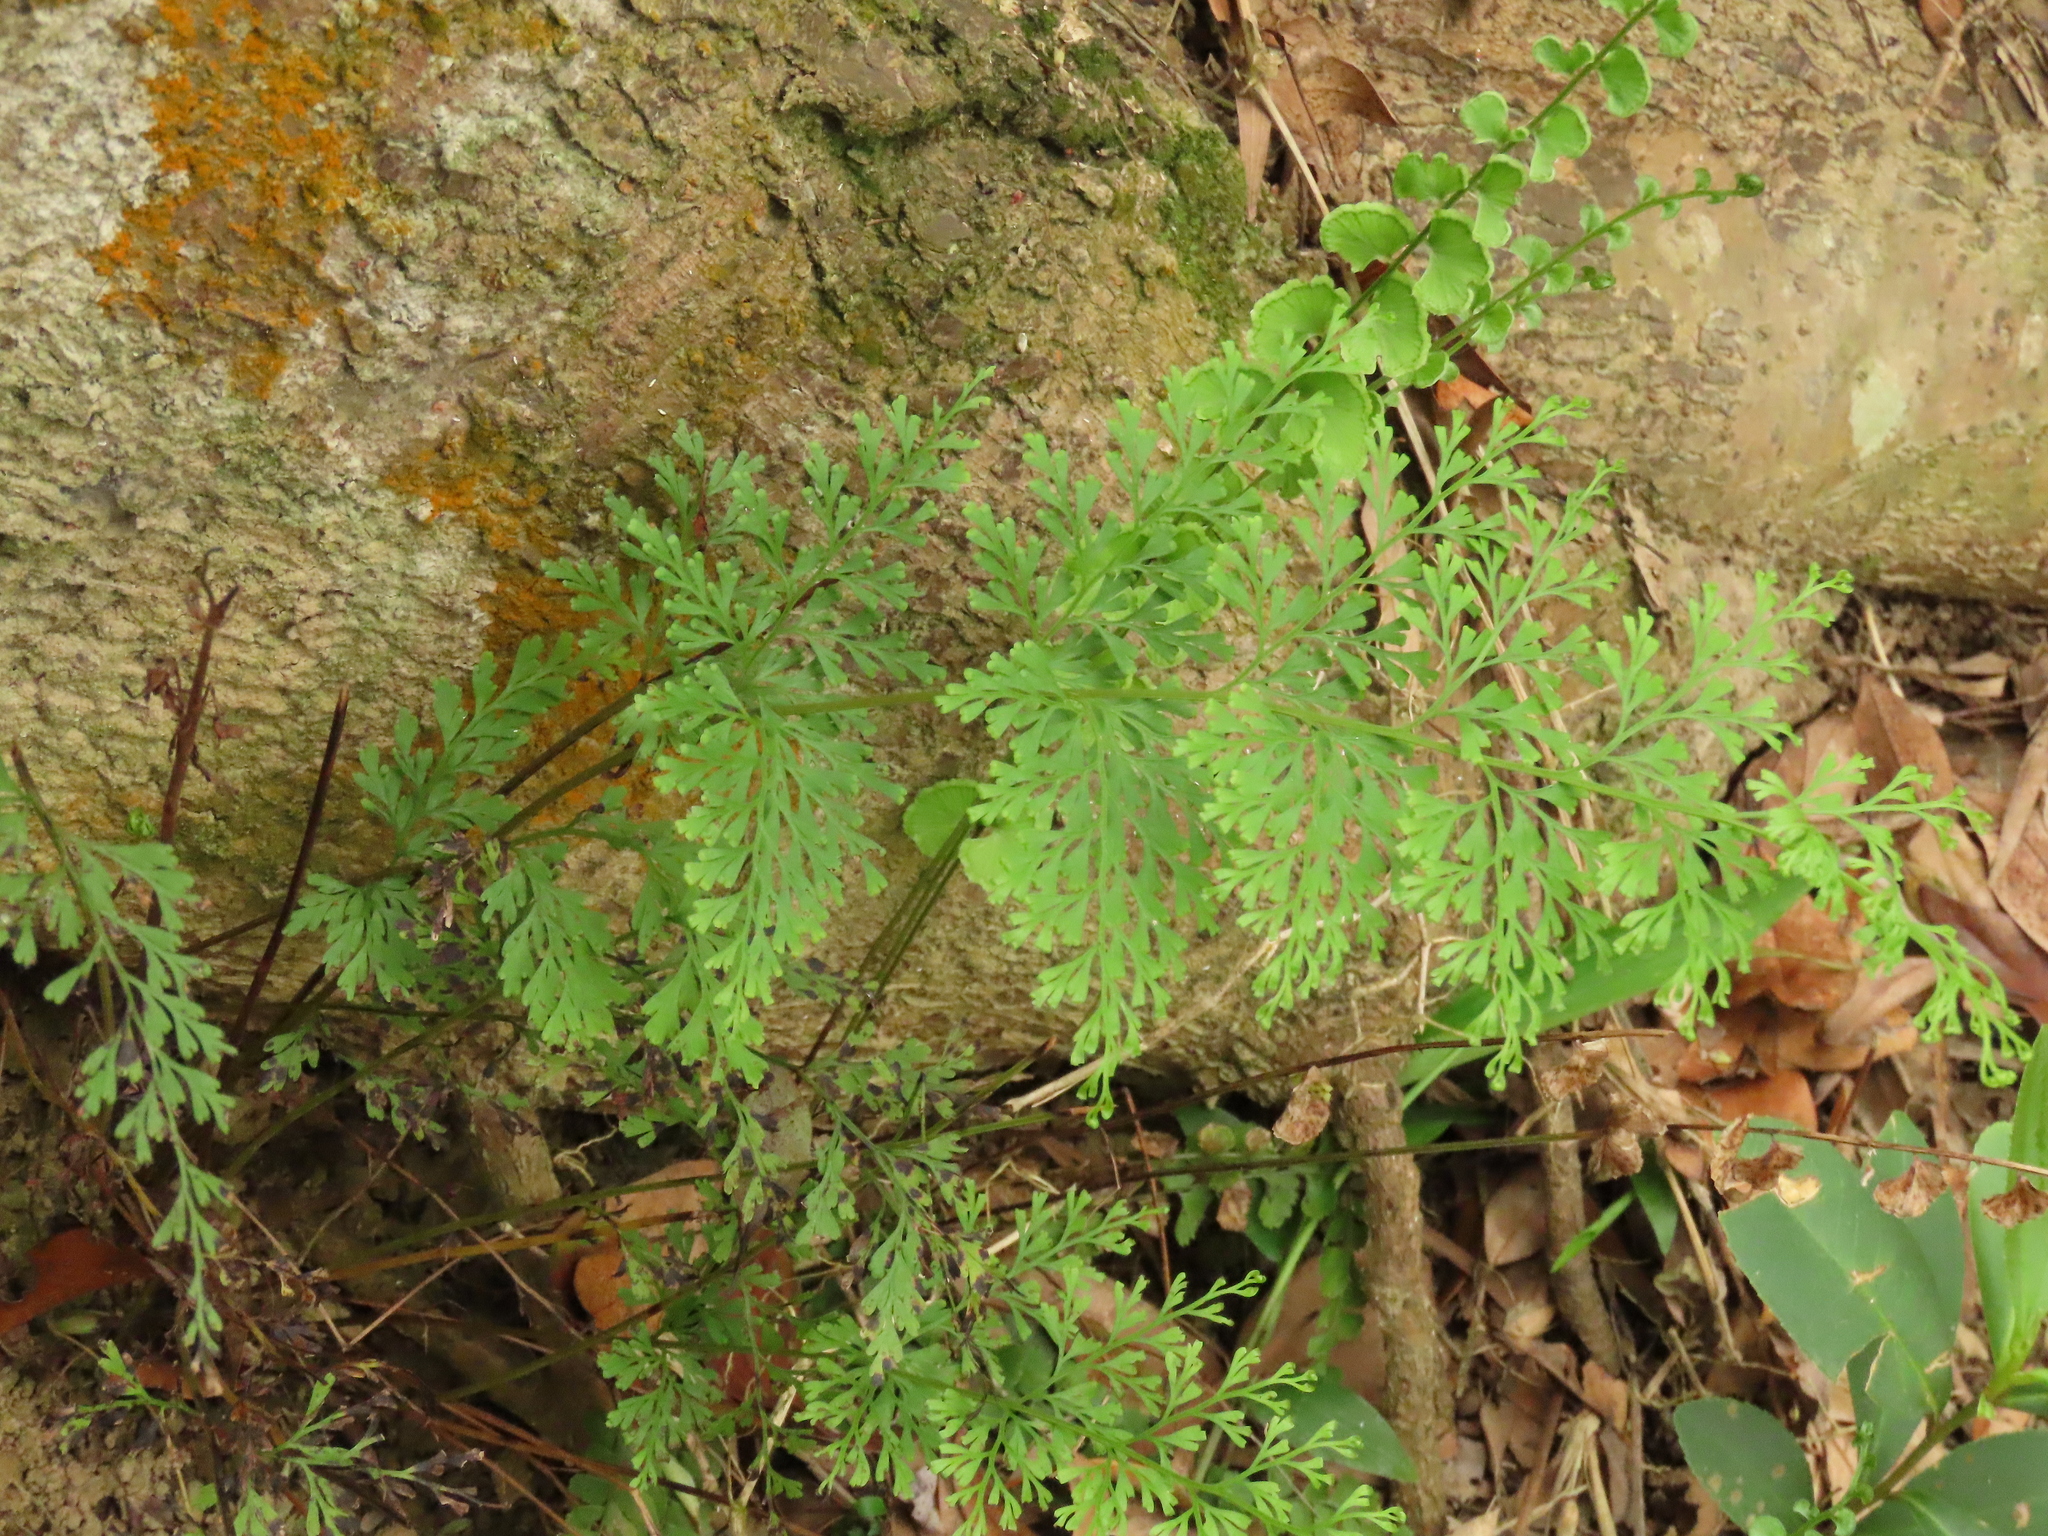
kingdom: Plantae
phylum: Tracheophyta
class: Polypodiopsida
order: Polypodiales
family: Lindsaeaceae
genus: Odontosoria
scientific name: Odontosoria chinensis
